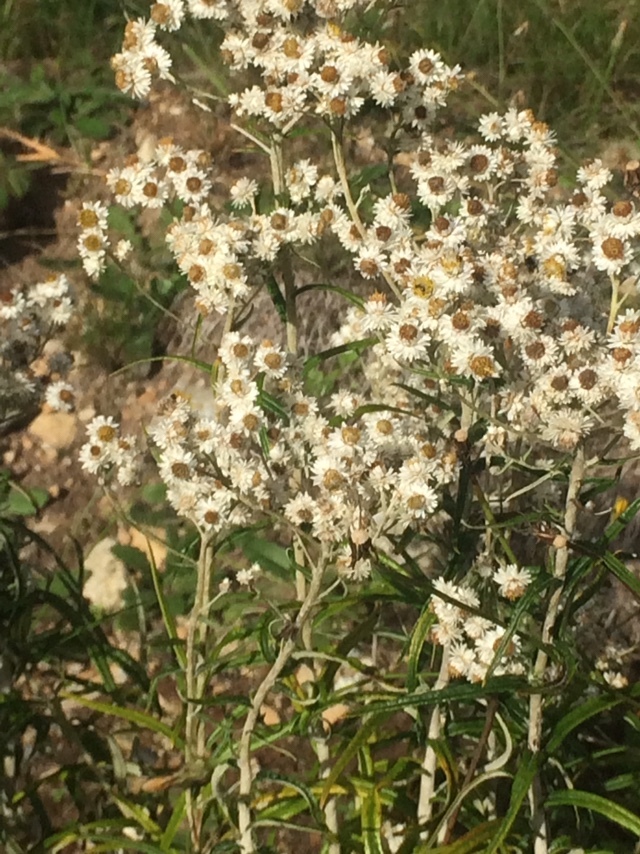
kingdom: Plantae
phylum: Tracheophyta
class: Magnoliopsida
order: Asterales
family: Asteraceae
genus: Anaphalis
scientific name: Anaphalis margaritacea
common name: Pearly everlasting
